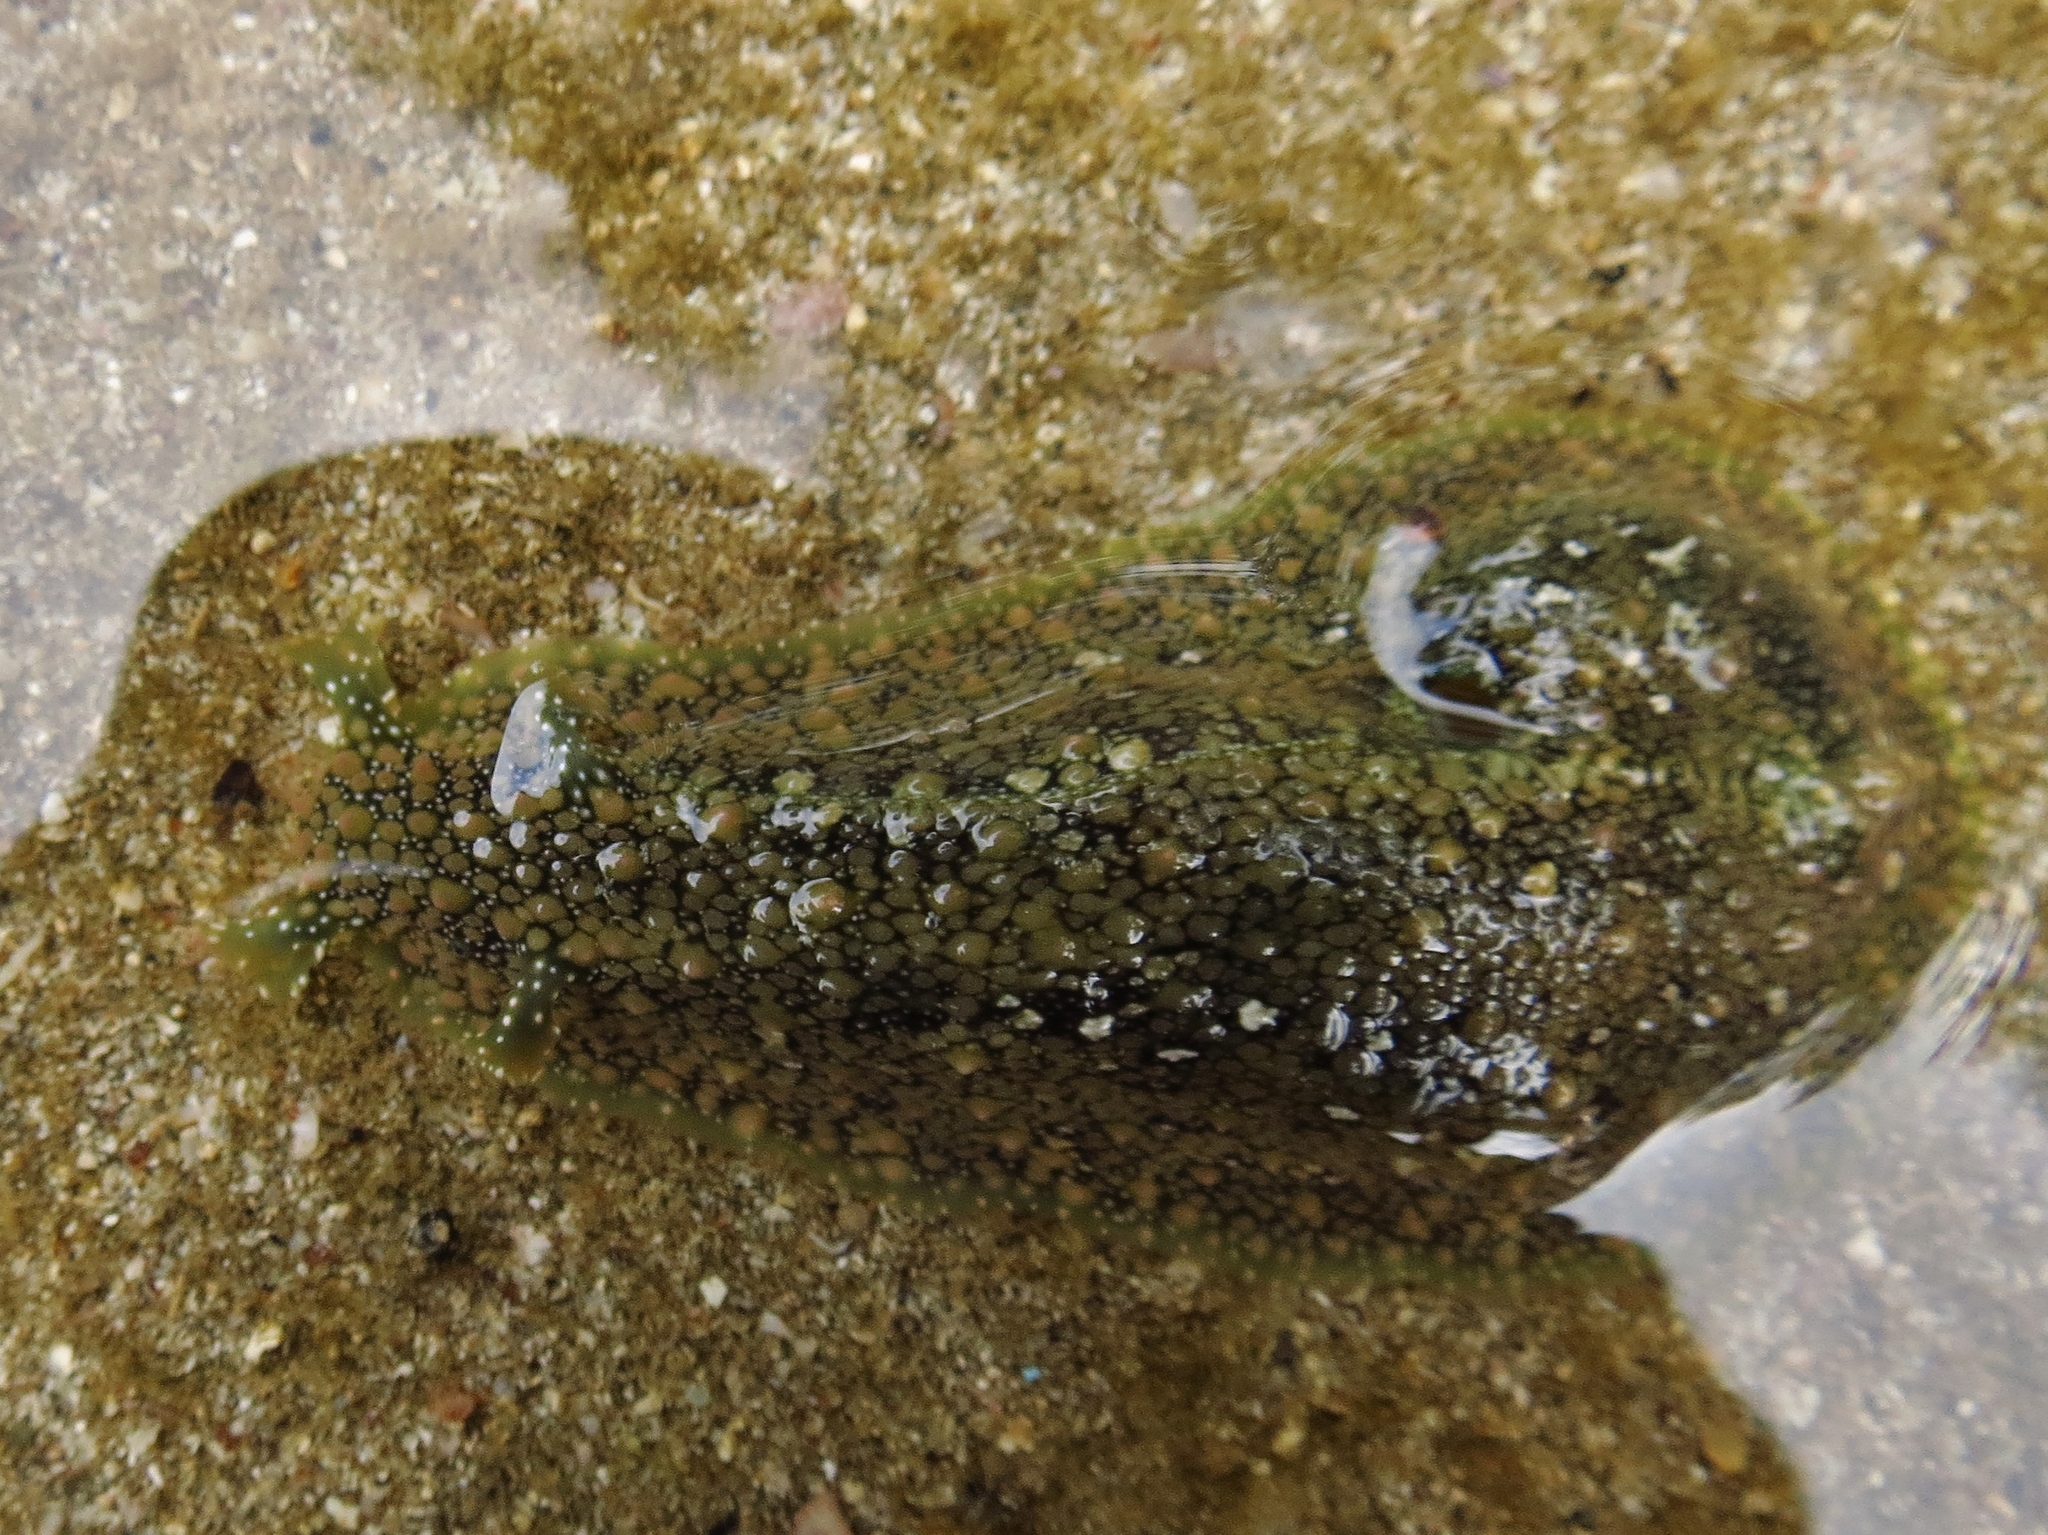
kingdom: Animalia
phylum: Mollusca
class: Gastropoda
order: Aplysiida
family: Aplysiidae
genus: Dolabrifera
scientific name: Dolabrifera nicaraguana
